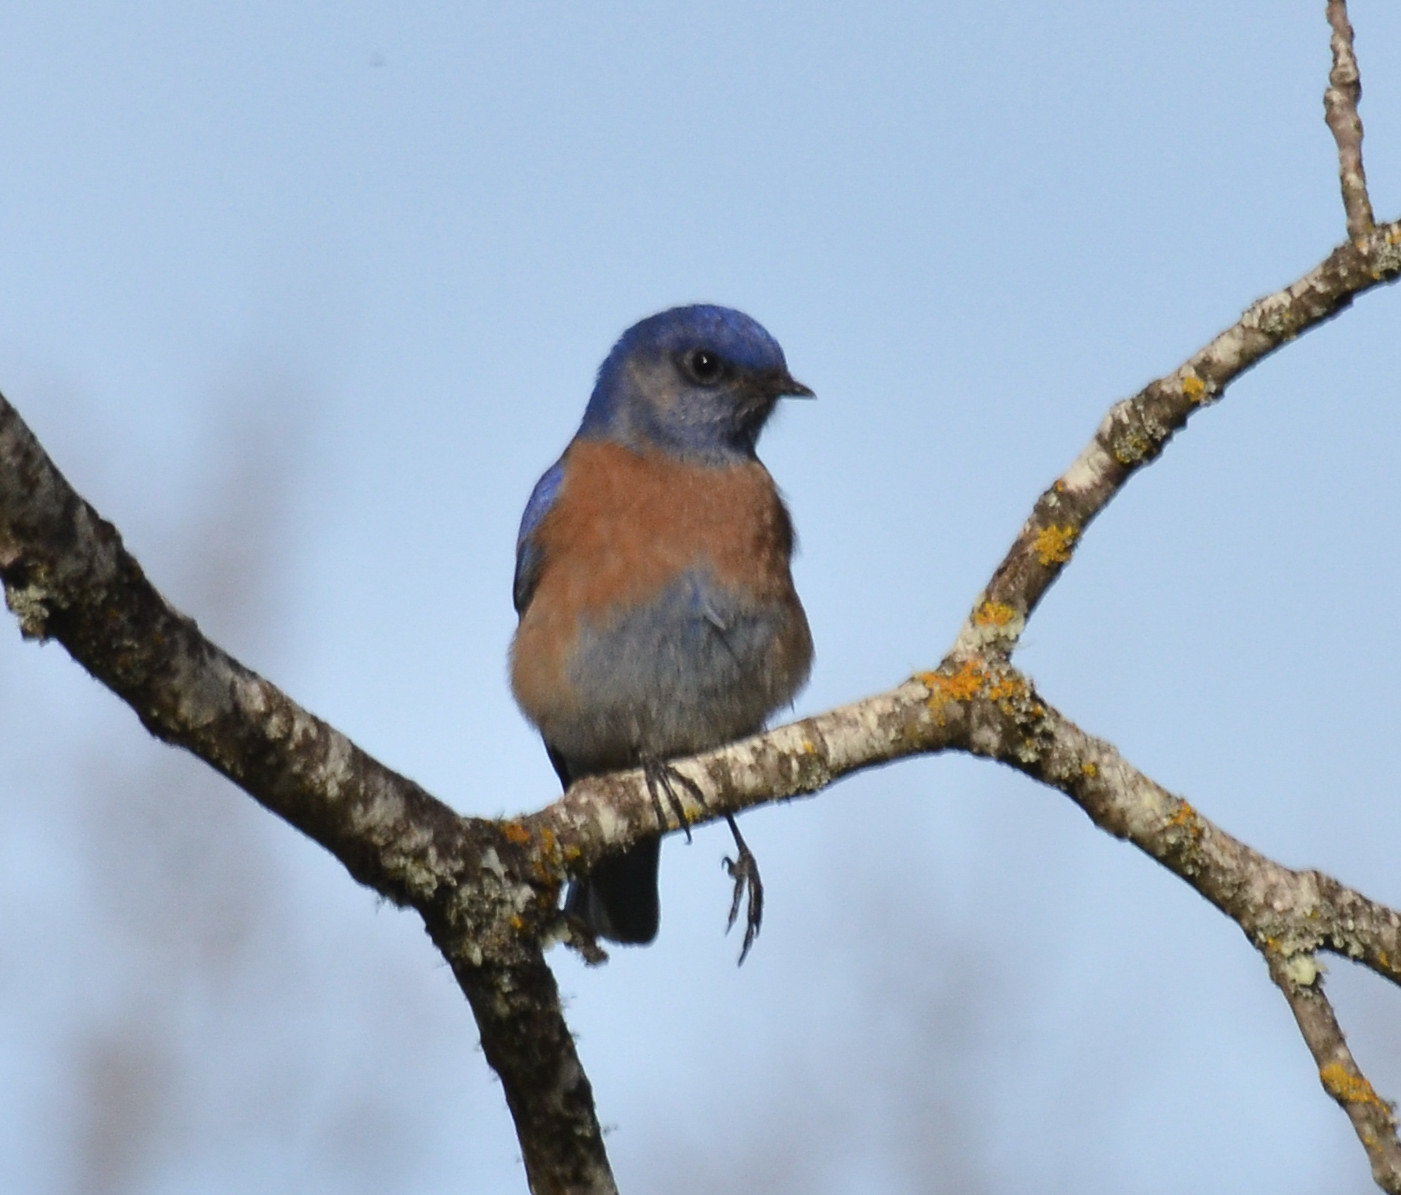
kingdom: Animalia
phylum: Chordata
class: Aves
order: Passeriformes
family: Turdidae
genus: Sialia
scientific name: Sialia mexicana
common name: Western bluebird
